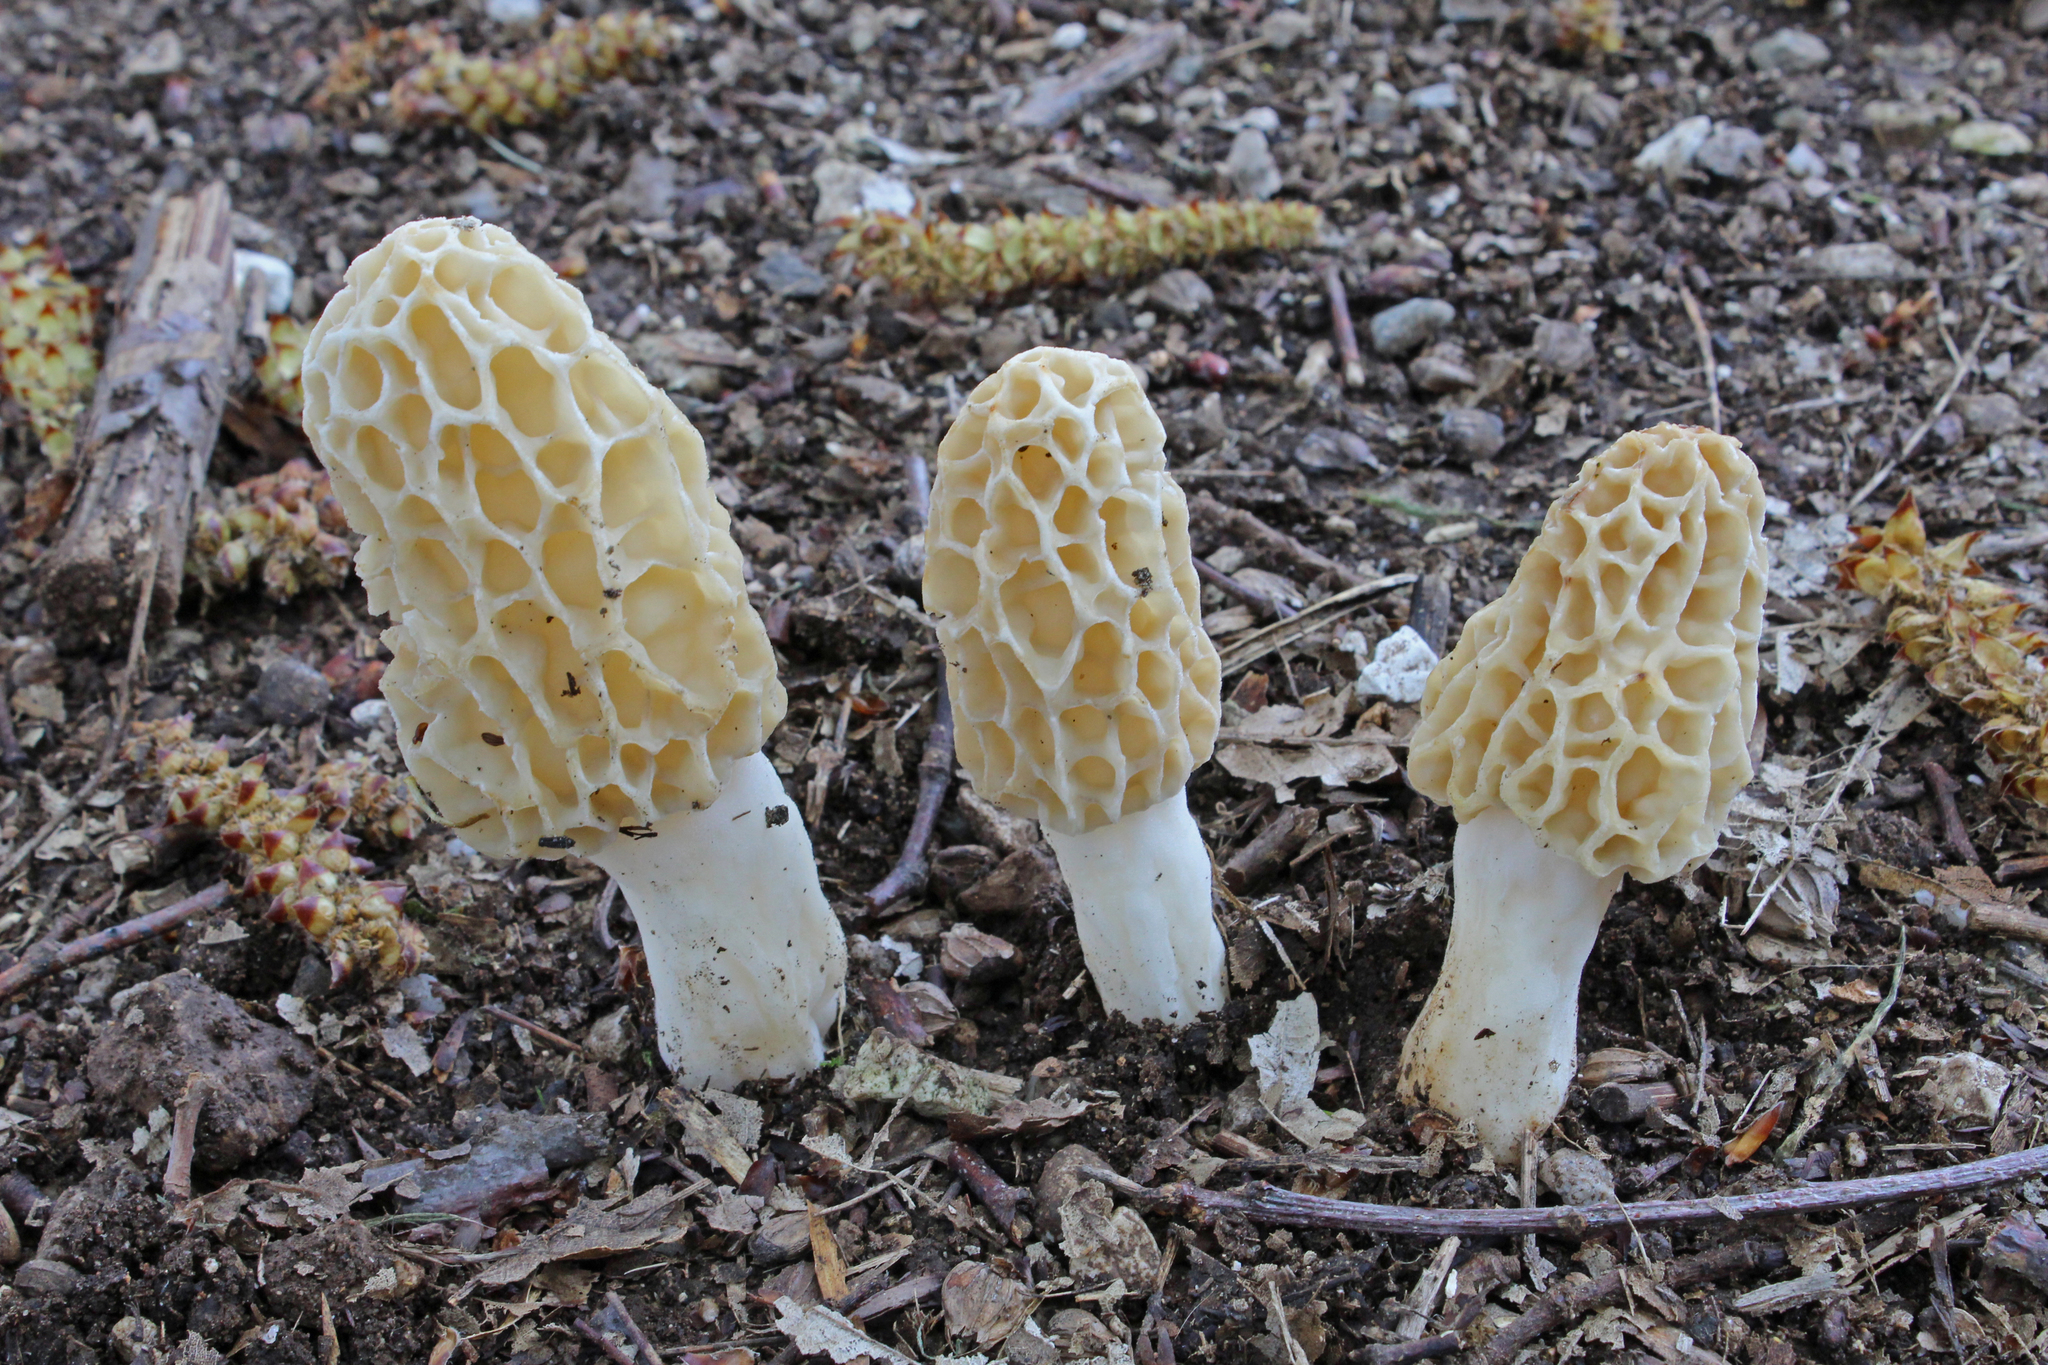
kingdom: Fungi
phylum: Ascomycota
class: Pezizomycetes
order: Pezizales
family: Morchellaceae
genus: Morchella
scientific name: Morchella
